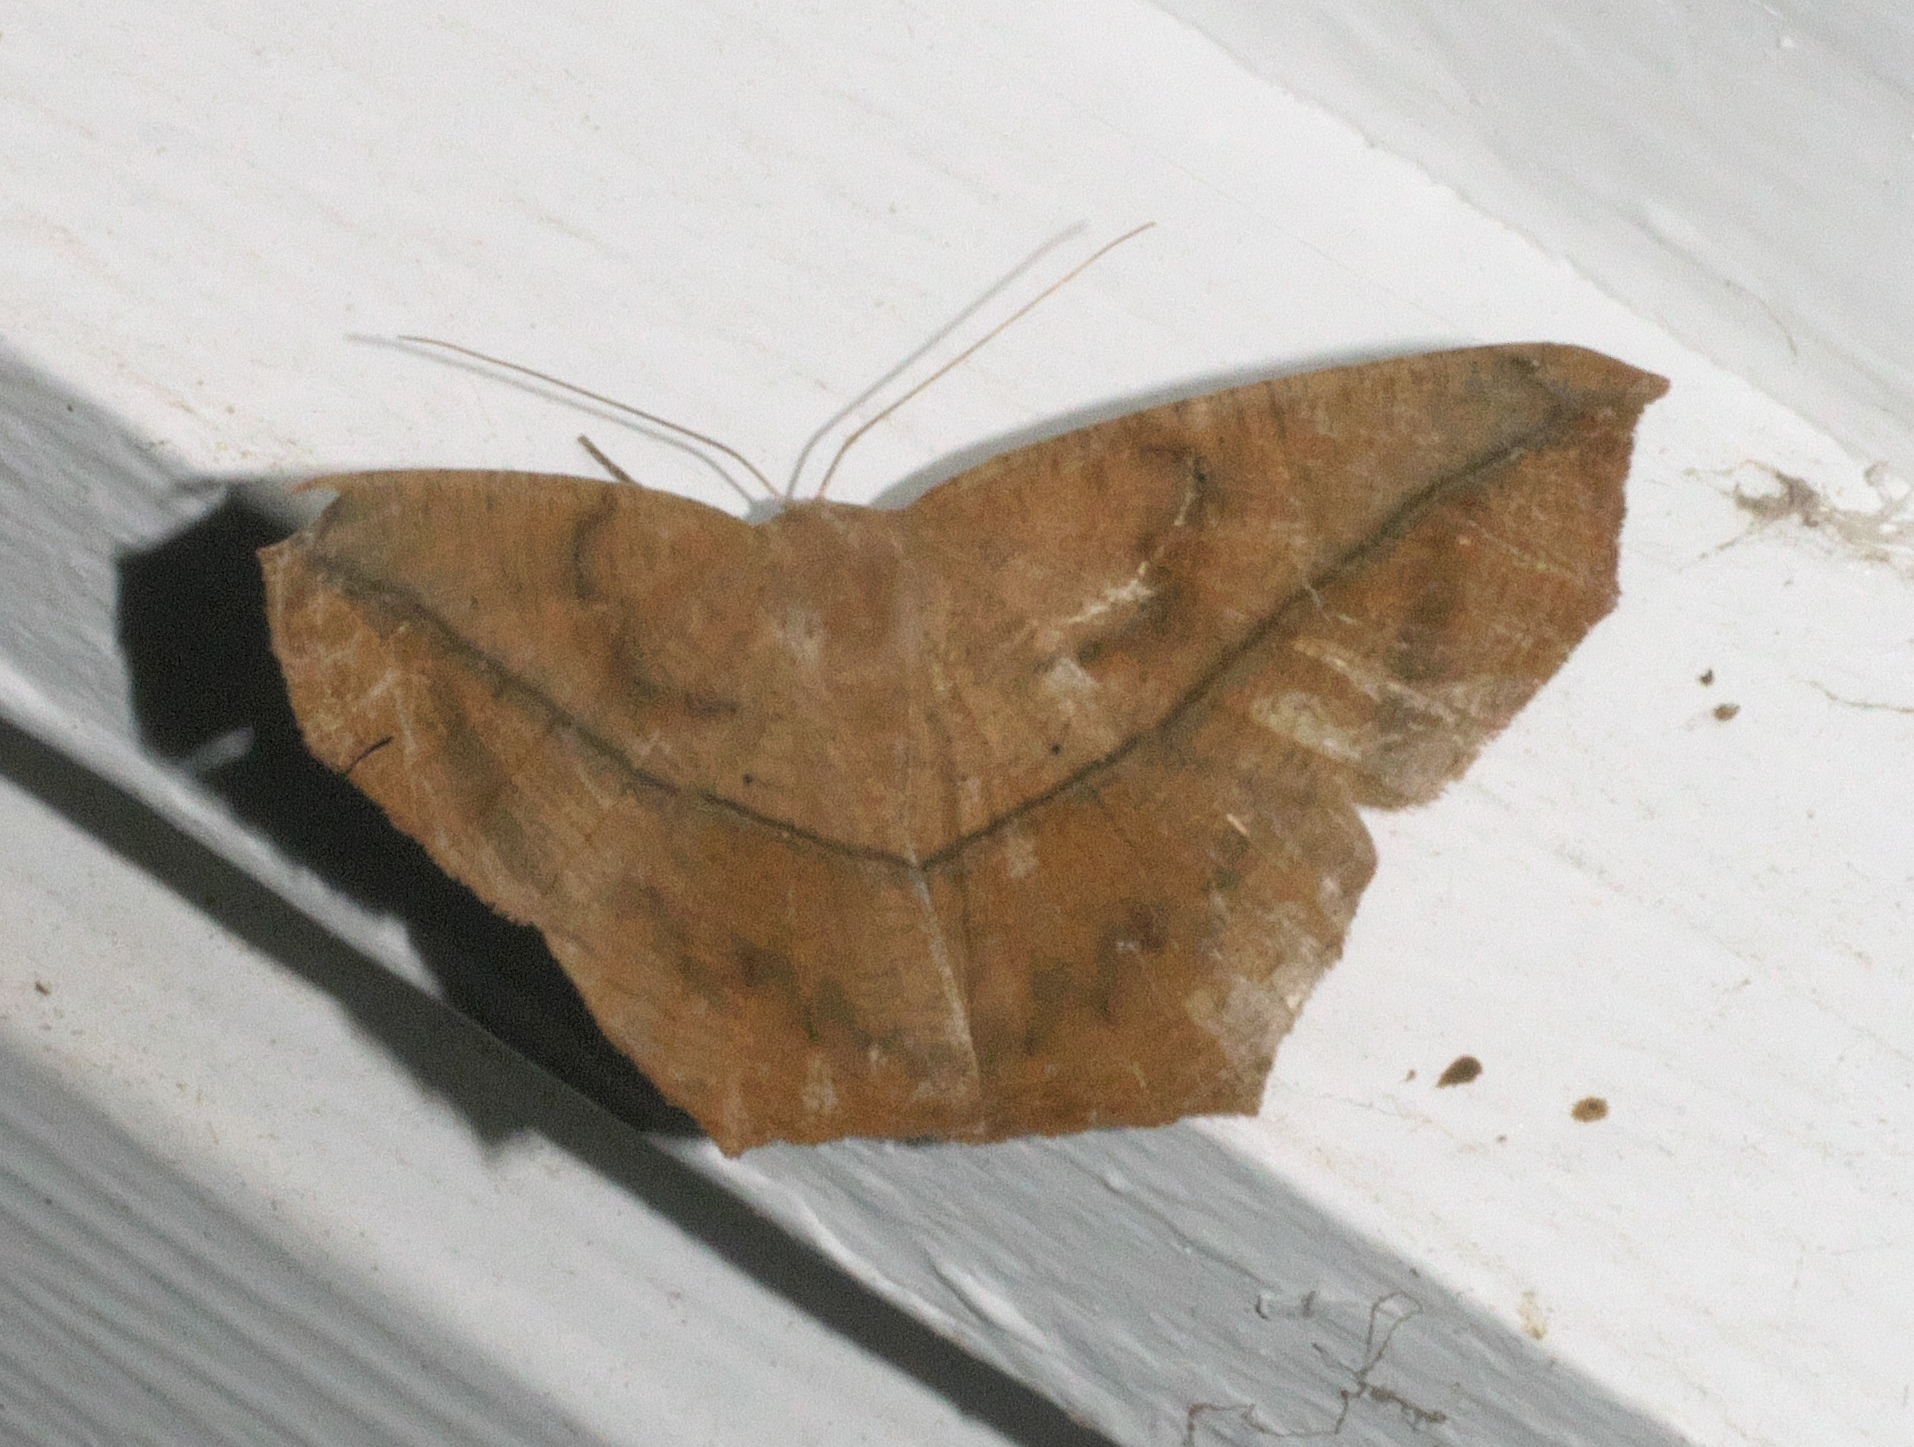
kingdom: Animalia
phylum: Arthropoda
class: Insecta
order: Lepidoptera
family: Geometridae
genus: Prochoerodes
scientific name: Prochoerodes lineola
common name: Large maple spanworm
